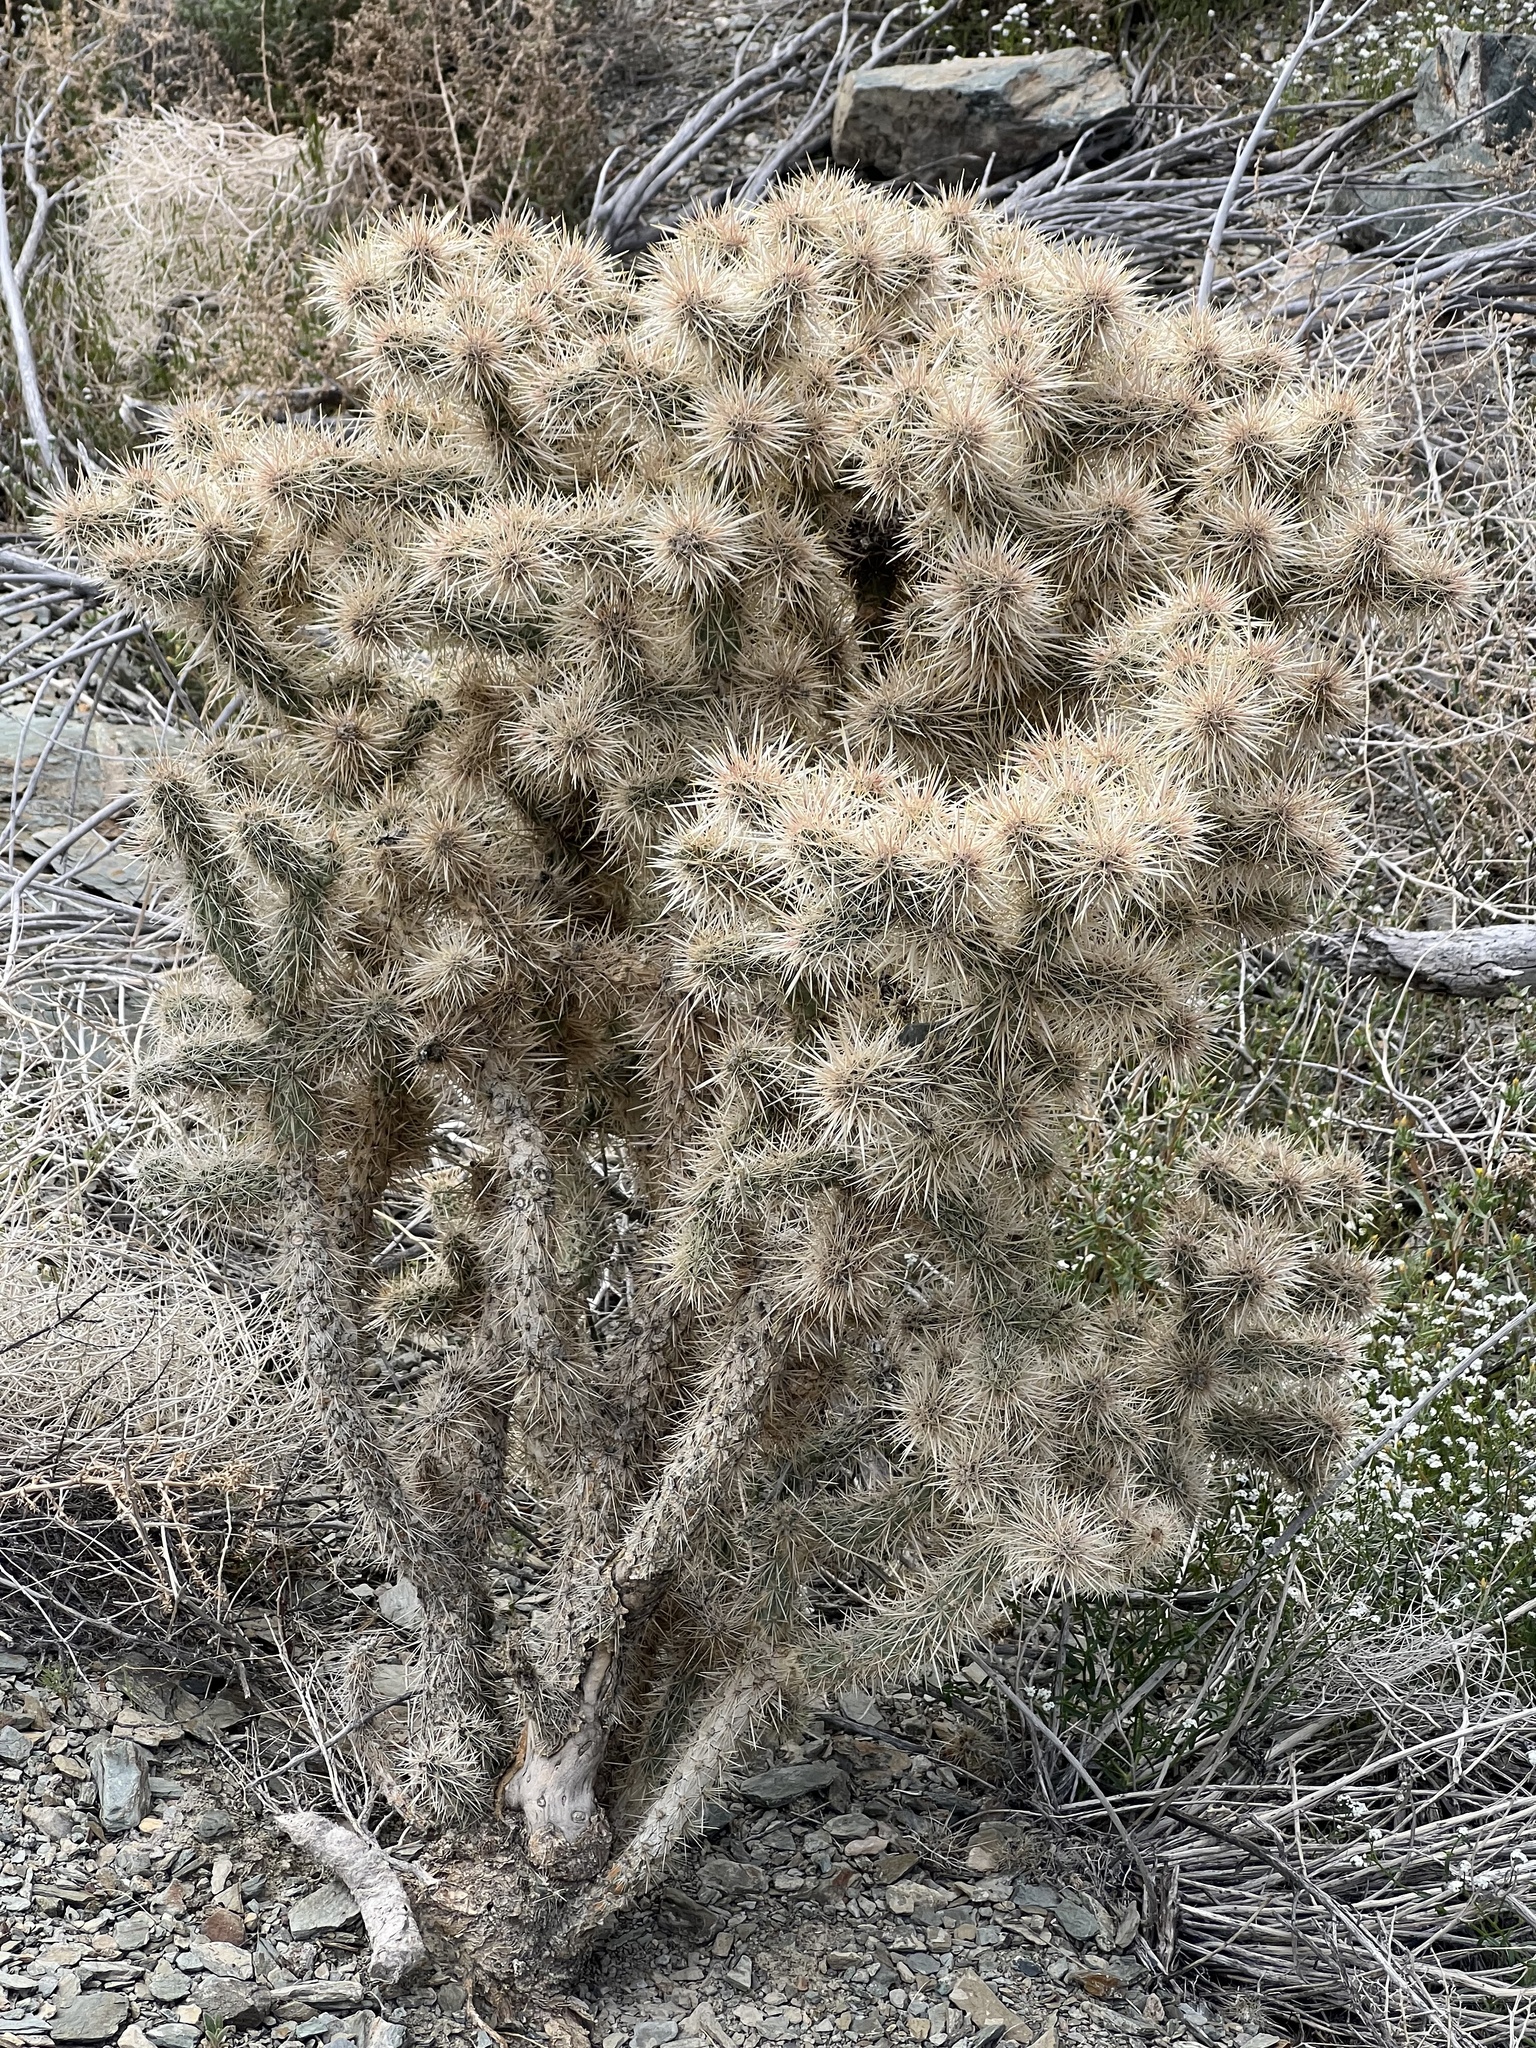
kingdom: Plantae
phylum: Tracheophyta
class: Magnoliopsida
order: Caryophyllales
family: Cactaceae
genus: Cylindropuntia
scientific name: Cylindropuntia echinocarpa
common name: Ground cholla
